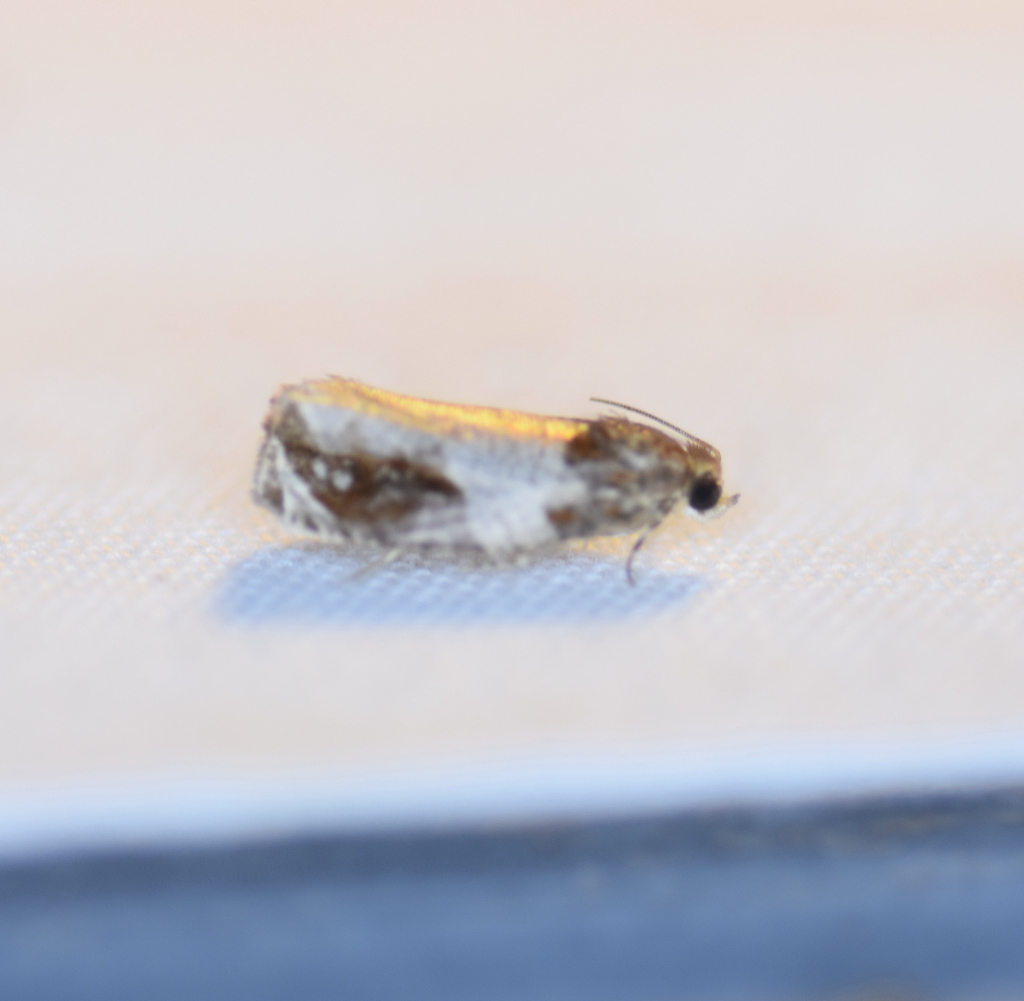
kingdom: Animalia
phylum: Arthropoda
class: Insecta
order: Lepidoptera
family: Tortricidae
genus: Olethreutes
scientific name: Olethreutes ferriferana
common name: Hydrangea leaftier moth
